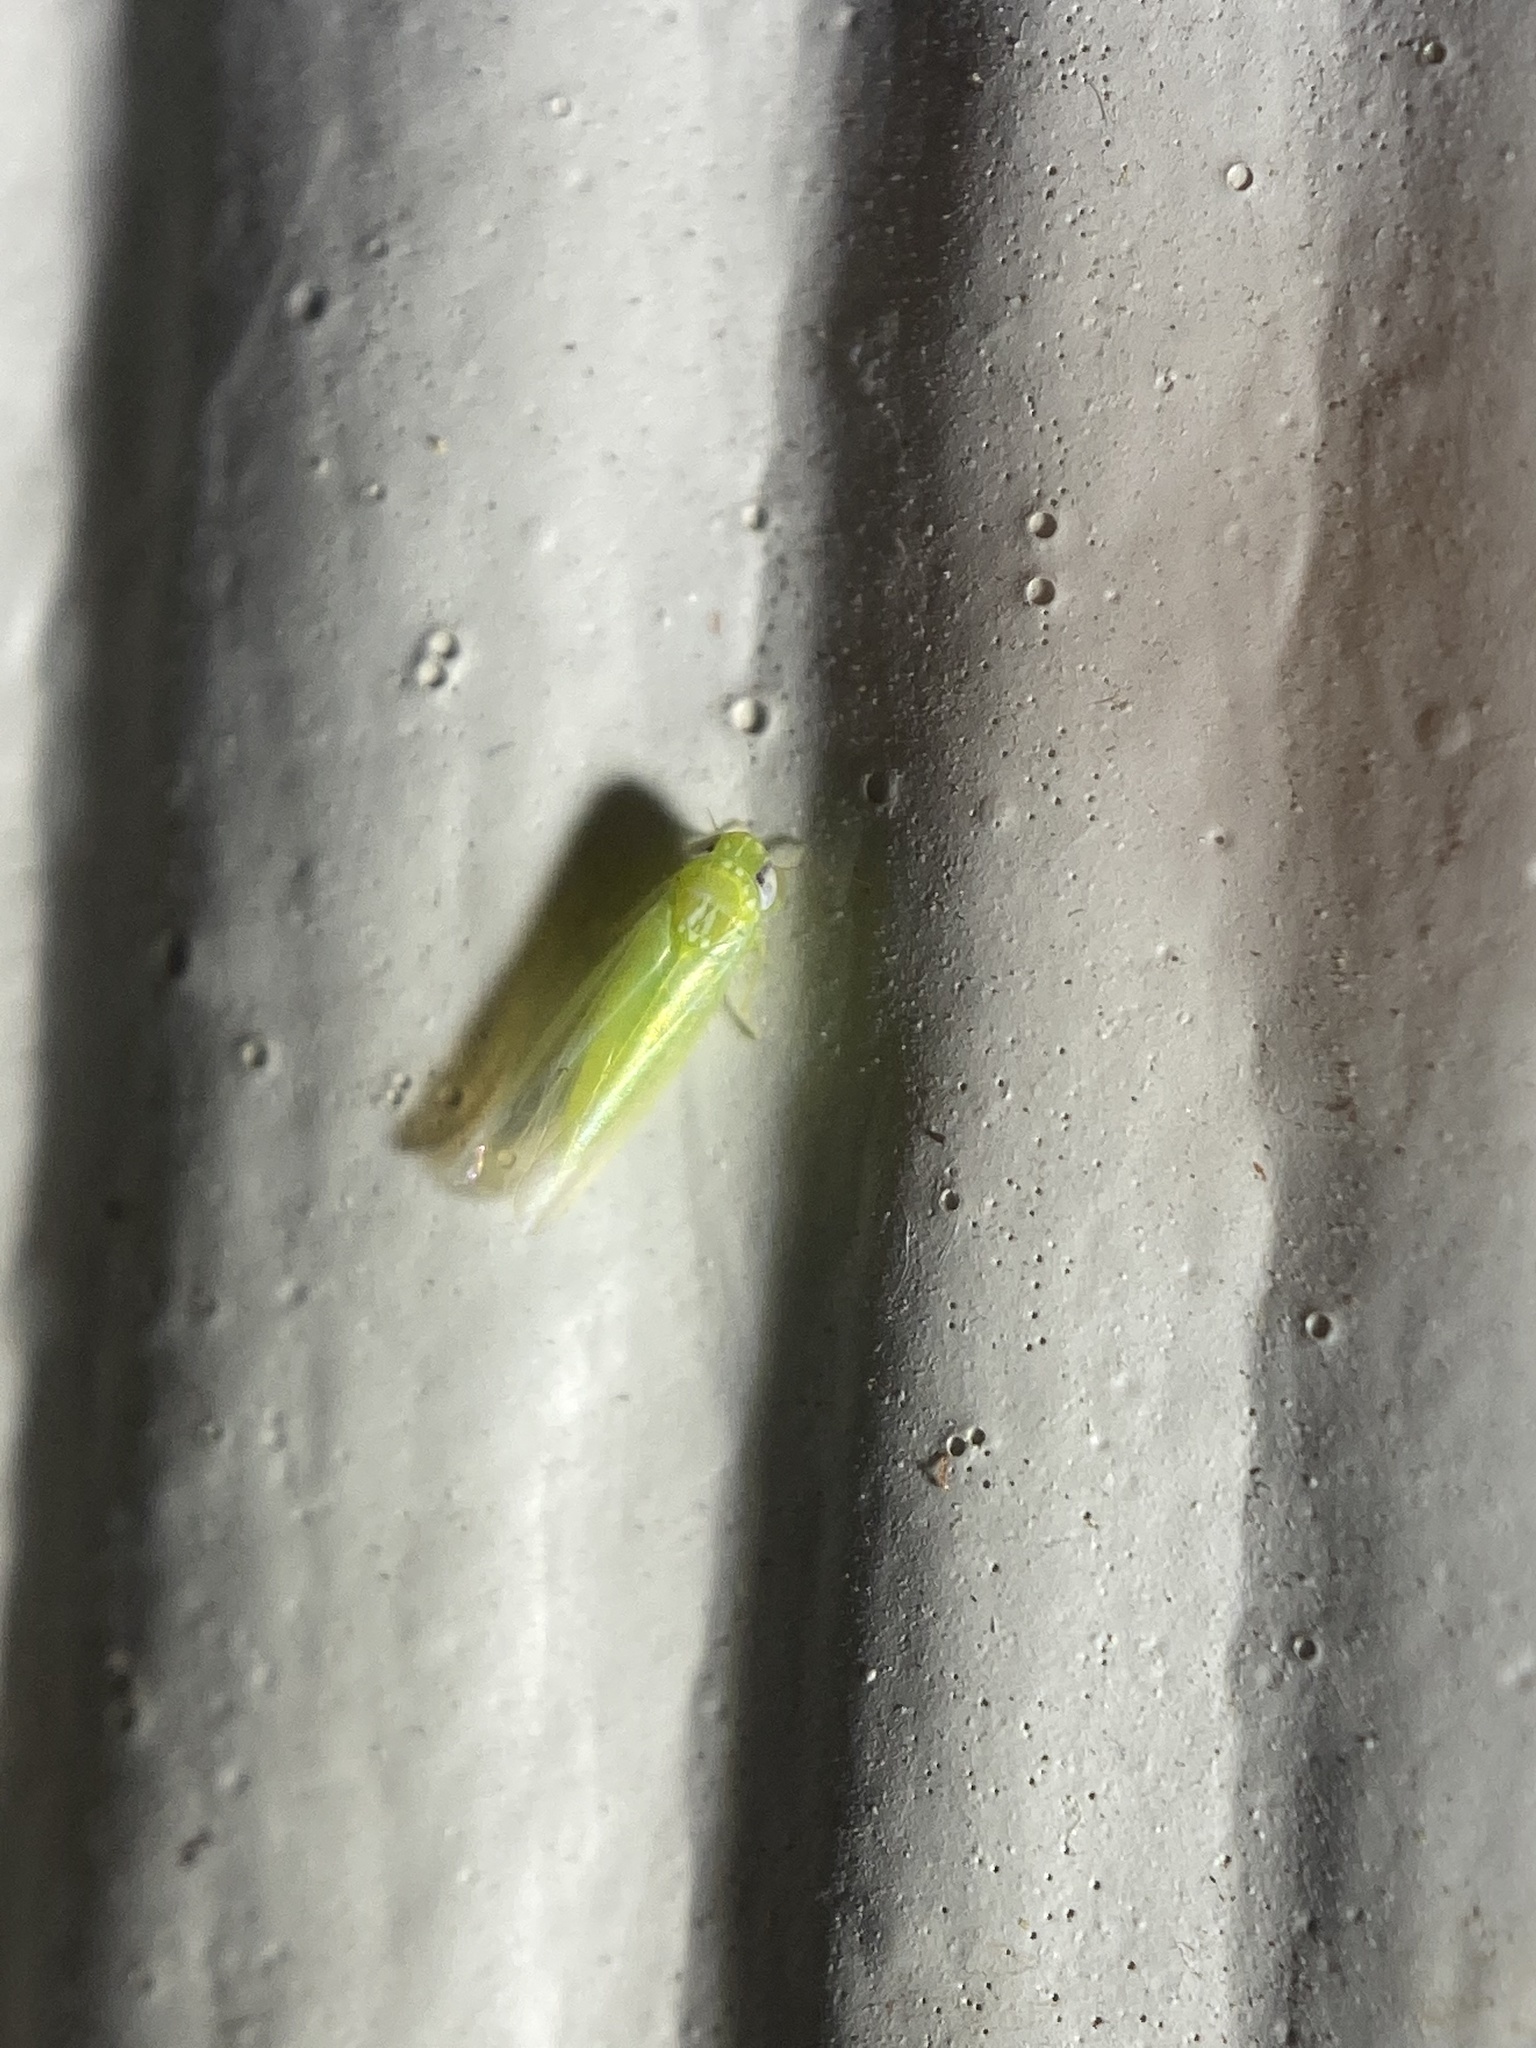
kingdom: Animalia
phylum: Arthropoda
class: Insecta
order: Hemiptera
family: Cicadellidae
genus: Empoasca
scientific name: Empoasca fabae
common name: Potato leafhopper
